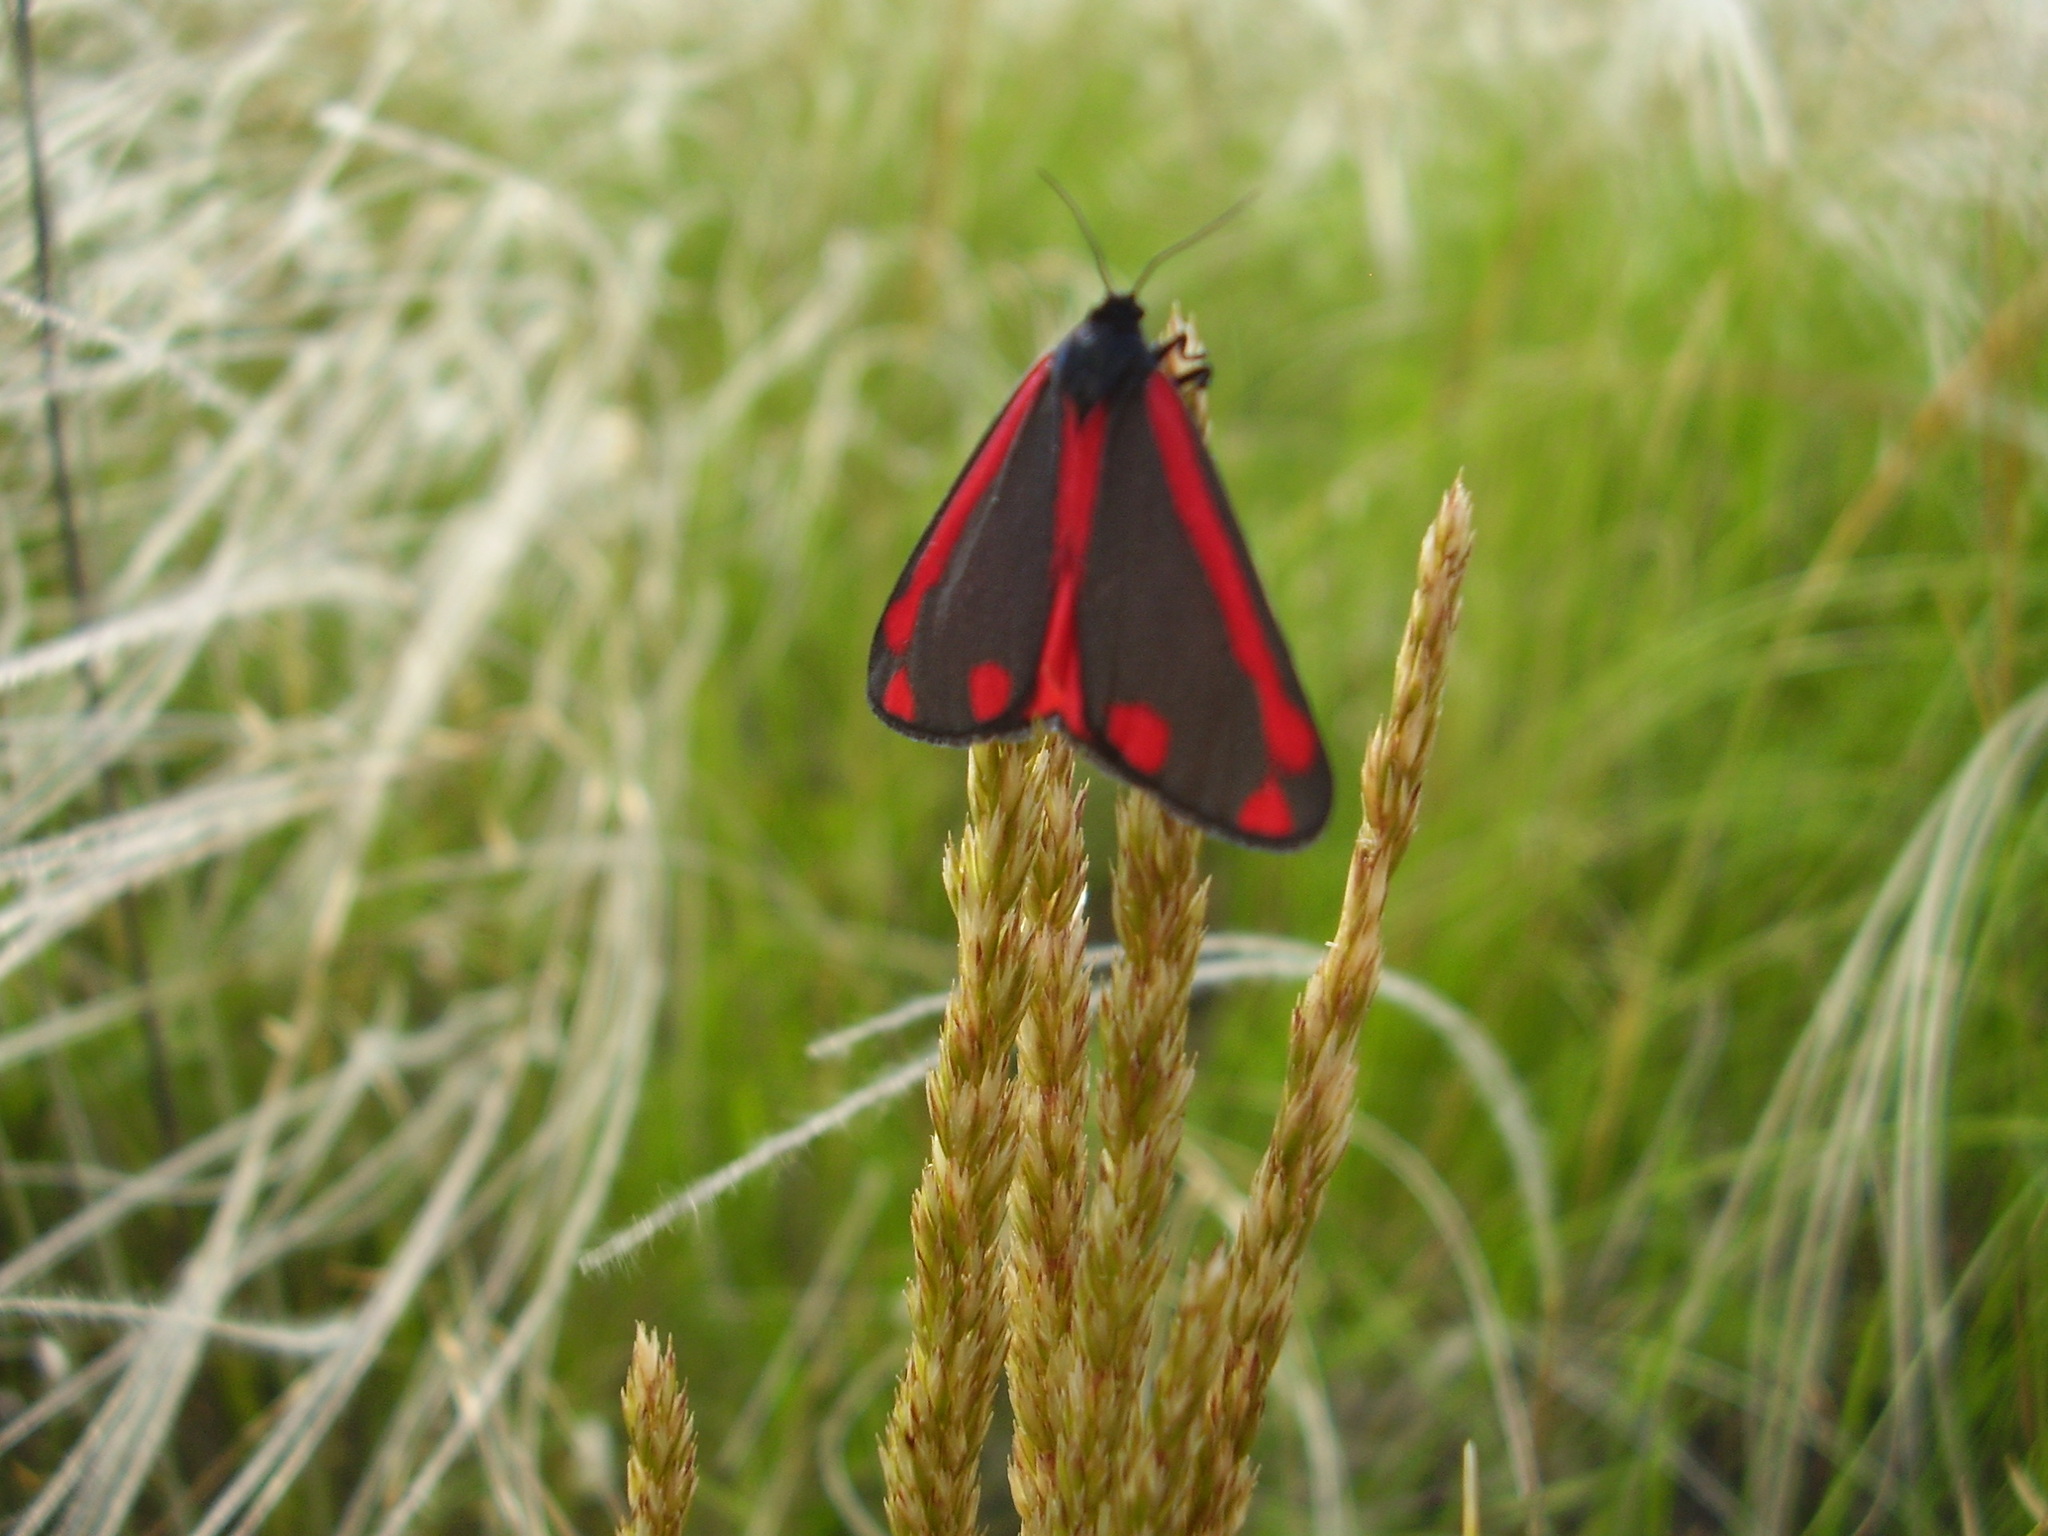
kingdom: Animalia
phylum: Arthropoda
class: Insecta
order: Lepidoptera
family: Erebidae
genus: Tyria
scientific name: Tyria jacobaeae
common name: Cinnabar
